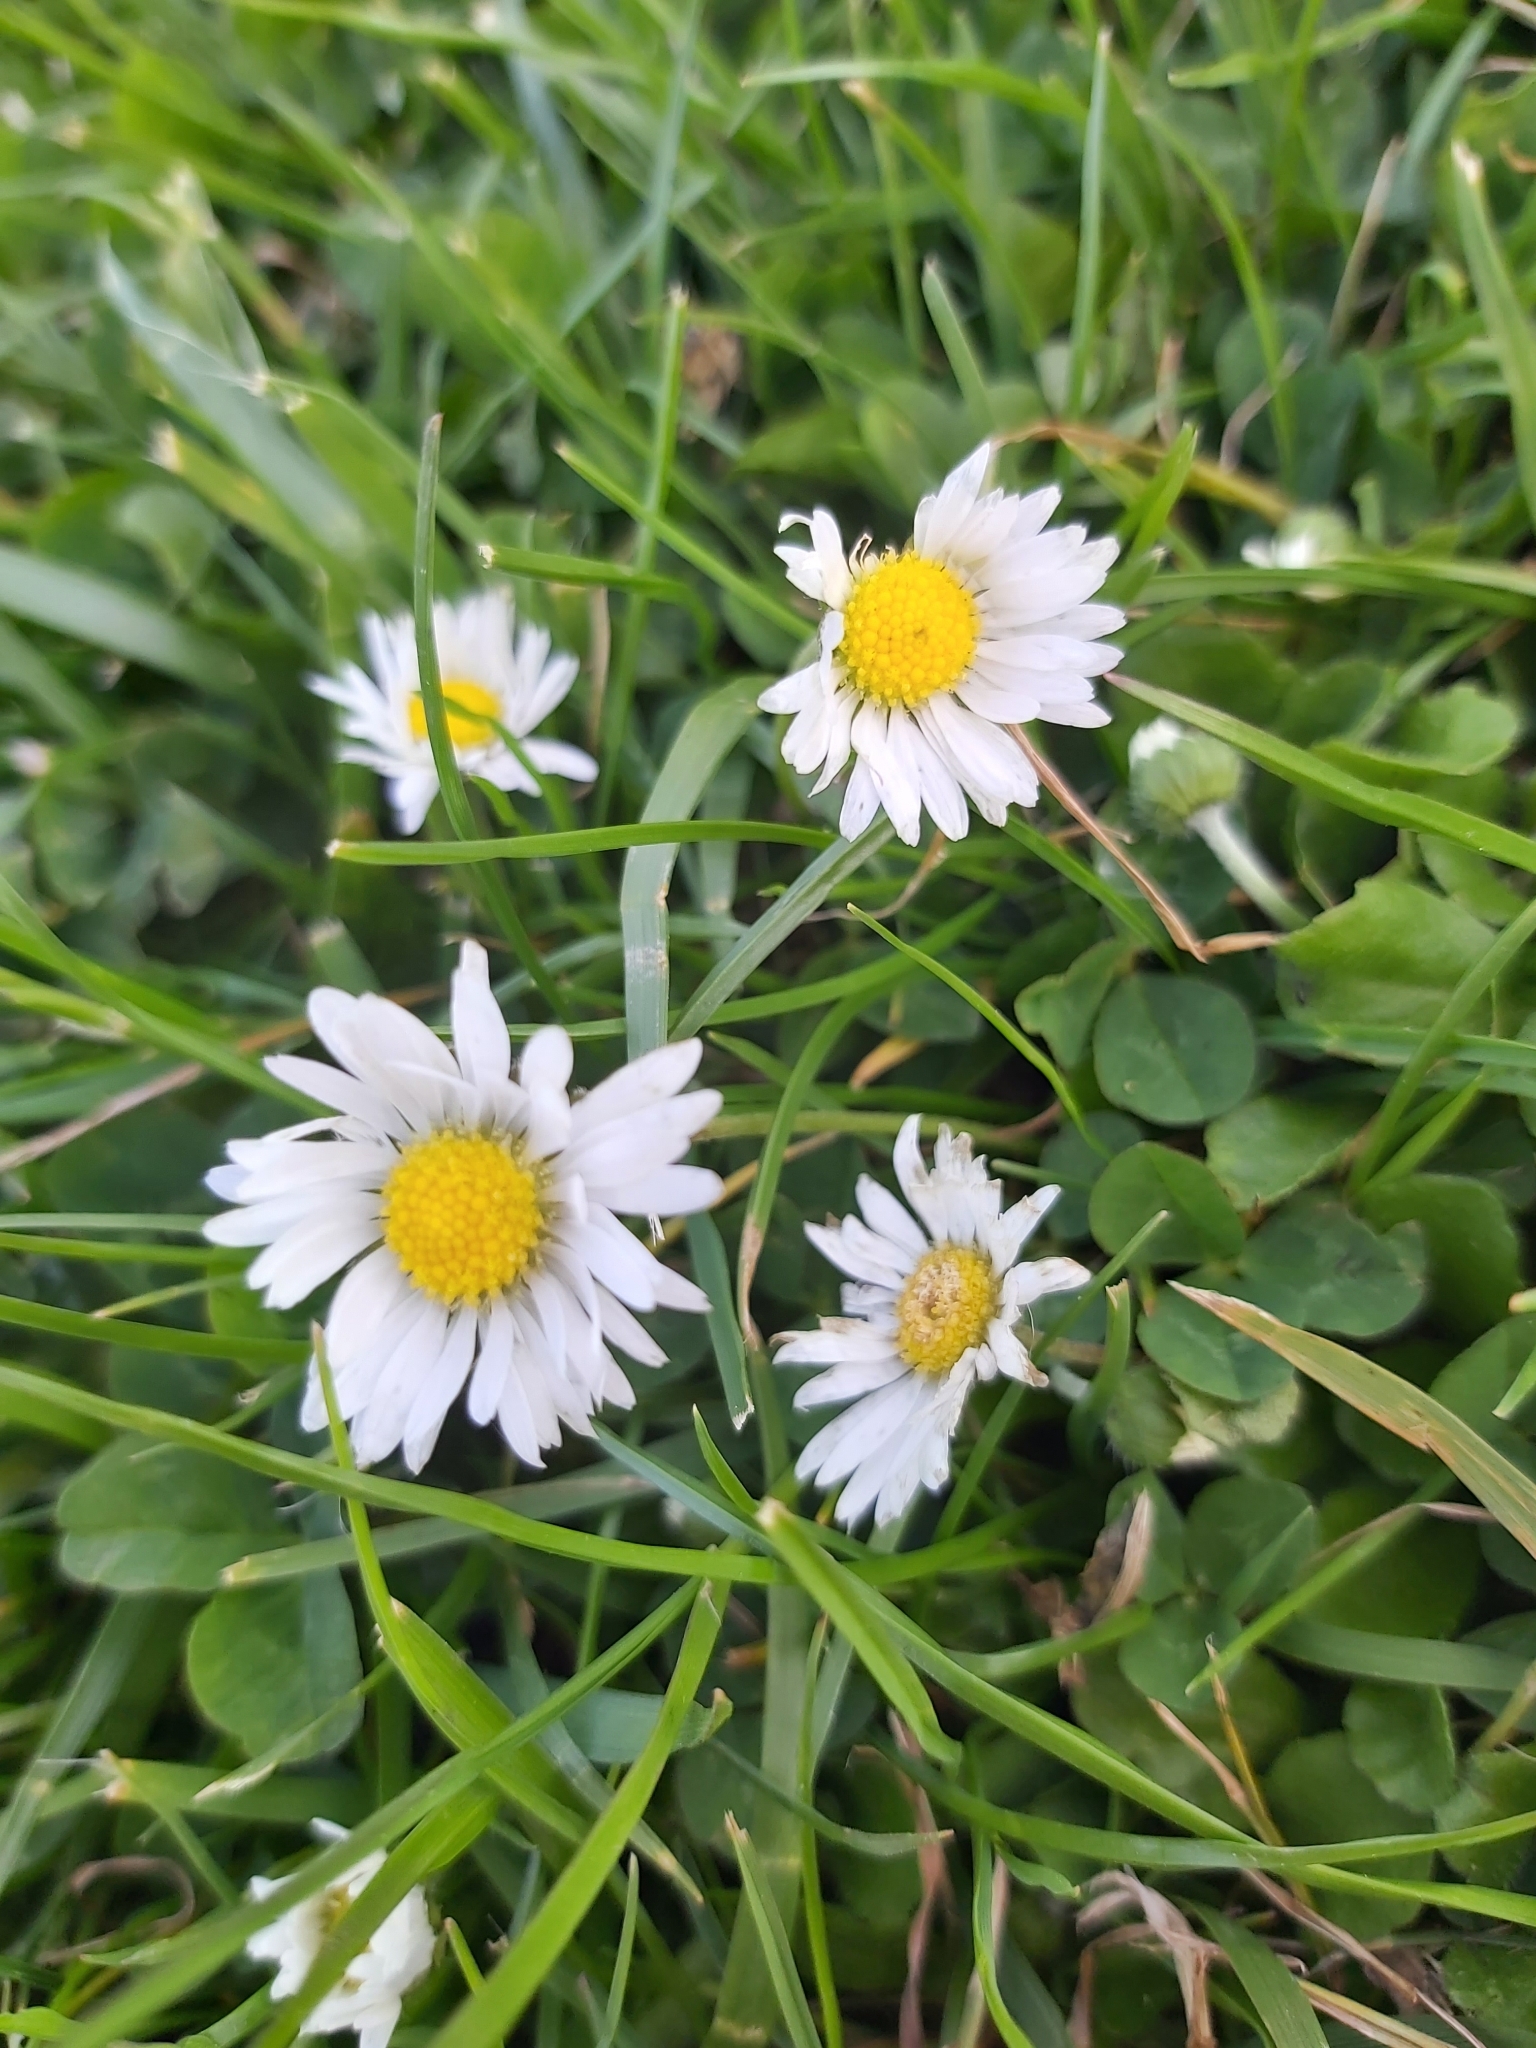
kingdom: Plantae
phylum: Tracheophyta
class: Magnoliopsida
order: Asterales
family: Asteraceae
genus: Bellis
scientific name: Bellis perennis
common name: Lawndaisy
